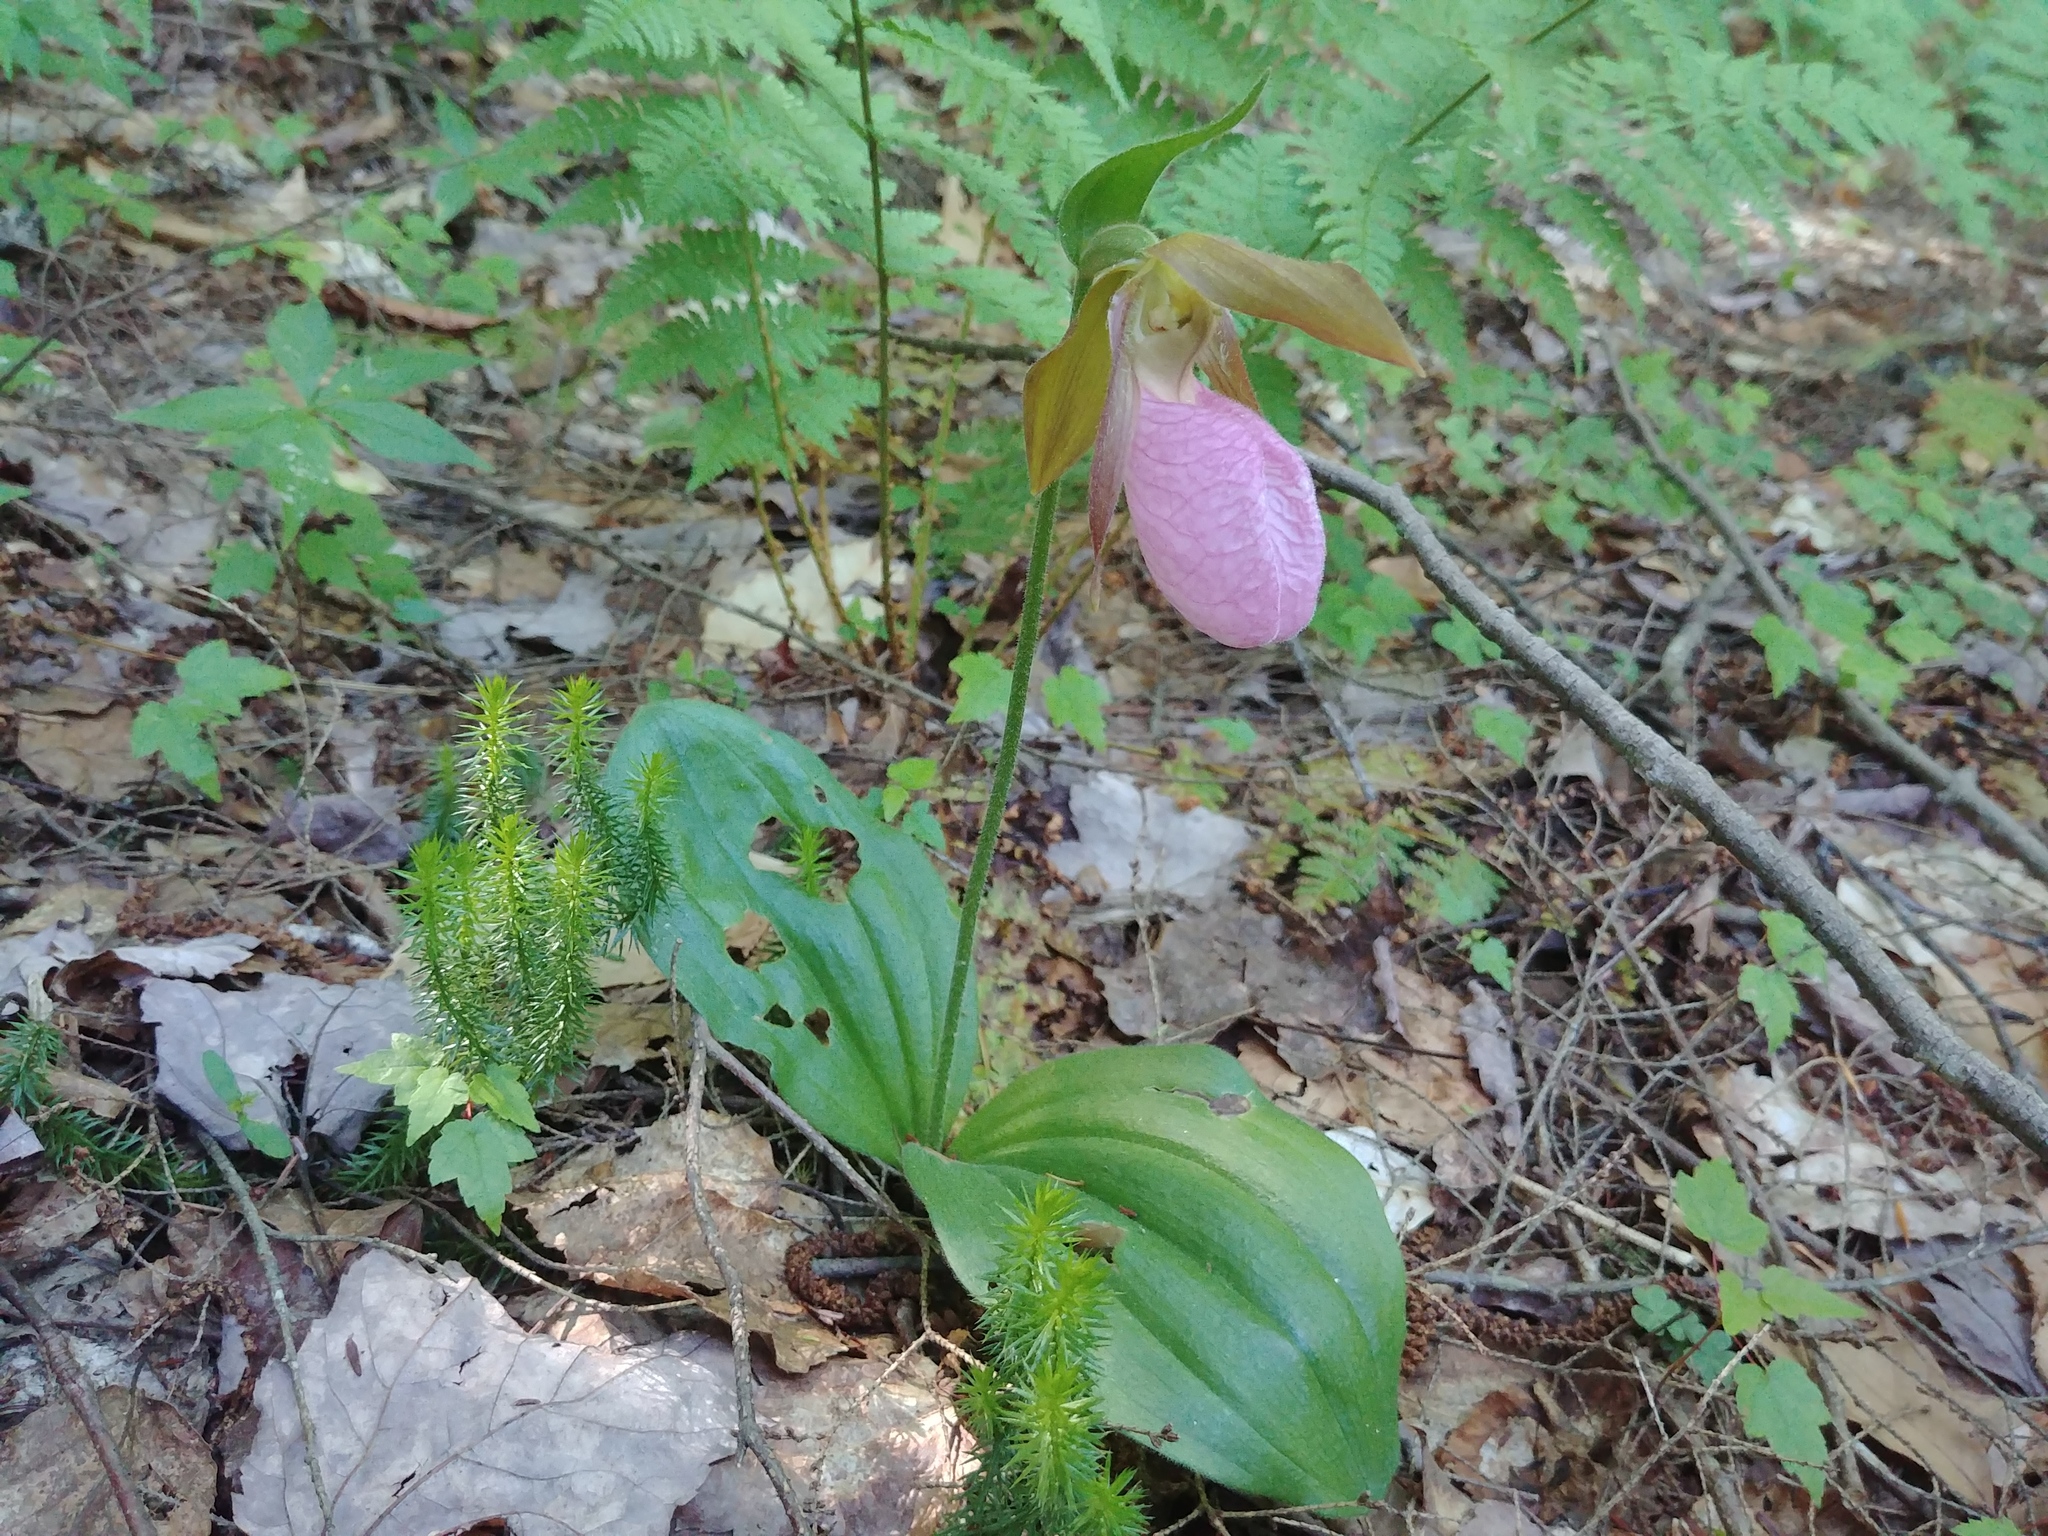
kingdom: Plantae
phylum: Tracheophyta
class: Liliopsida
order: Asparagales
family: Orchidaceae
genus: Cypripedium
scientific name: Cypripedium acaule
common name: Pink lady's-slipper
